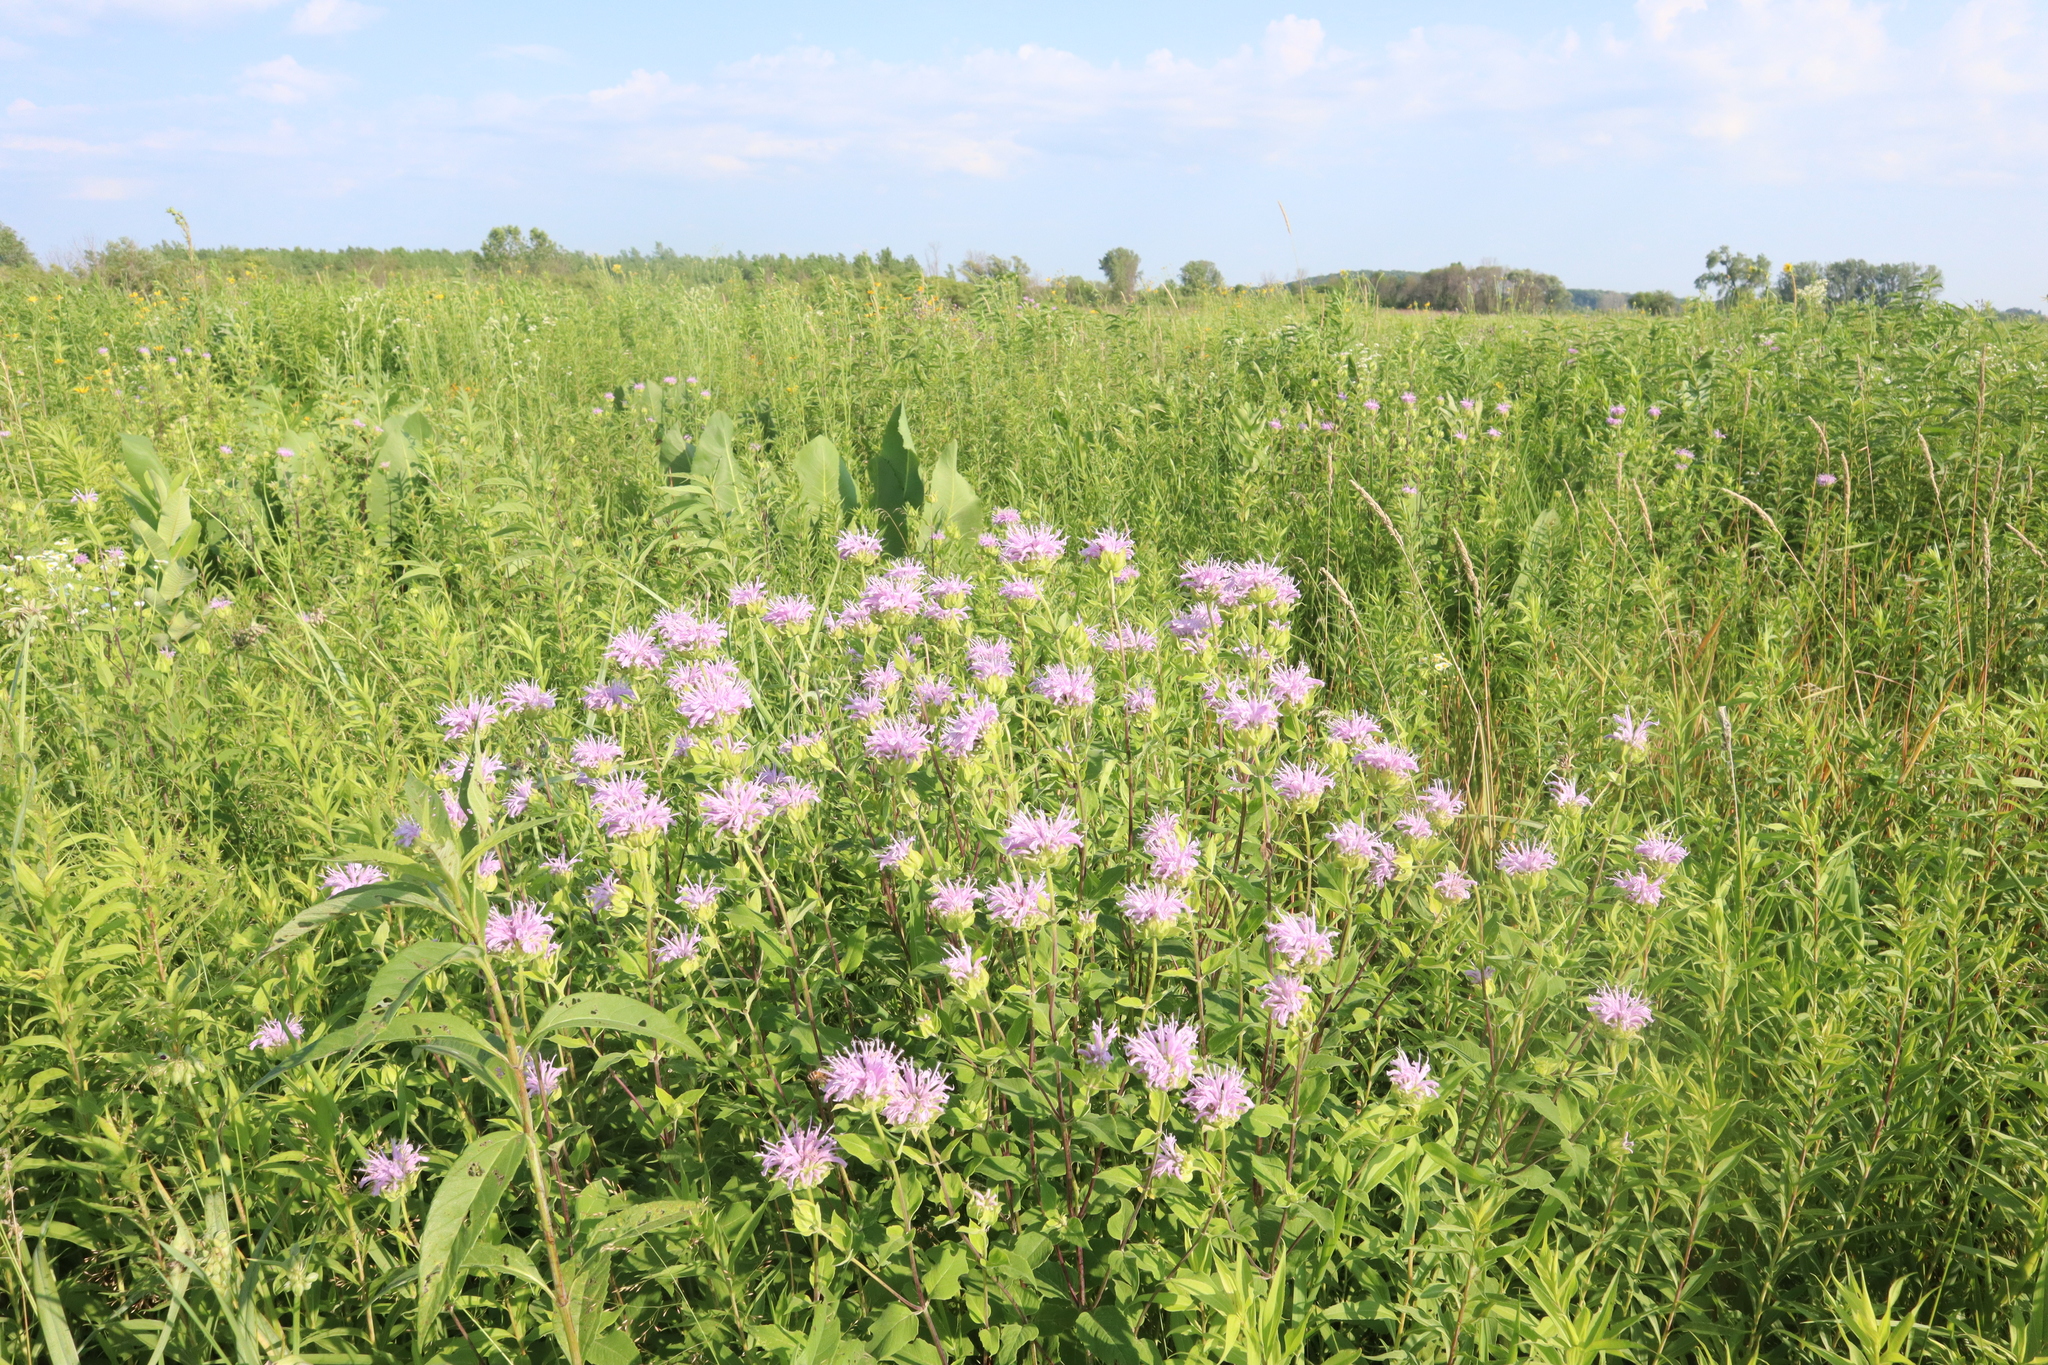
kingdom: Plantae
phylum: Tracheophyta
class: Magnoliopsida
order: Lamiales
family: Lamiaceae
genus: Monarda
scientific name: Monarda fistulosa
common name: Purple beebalm
